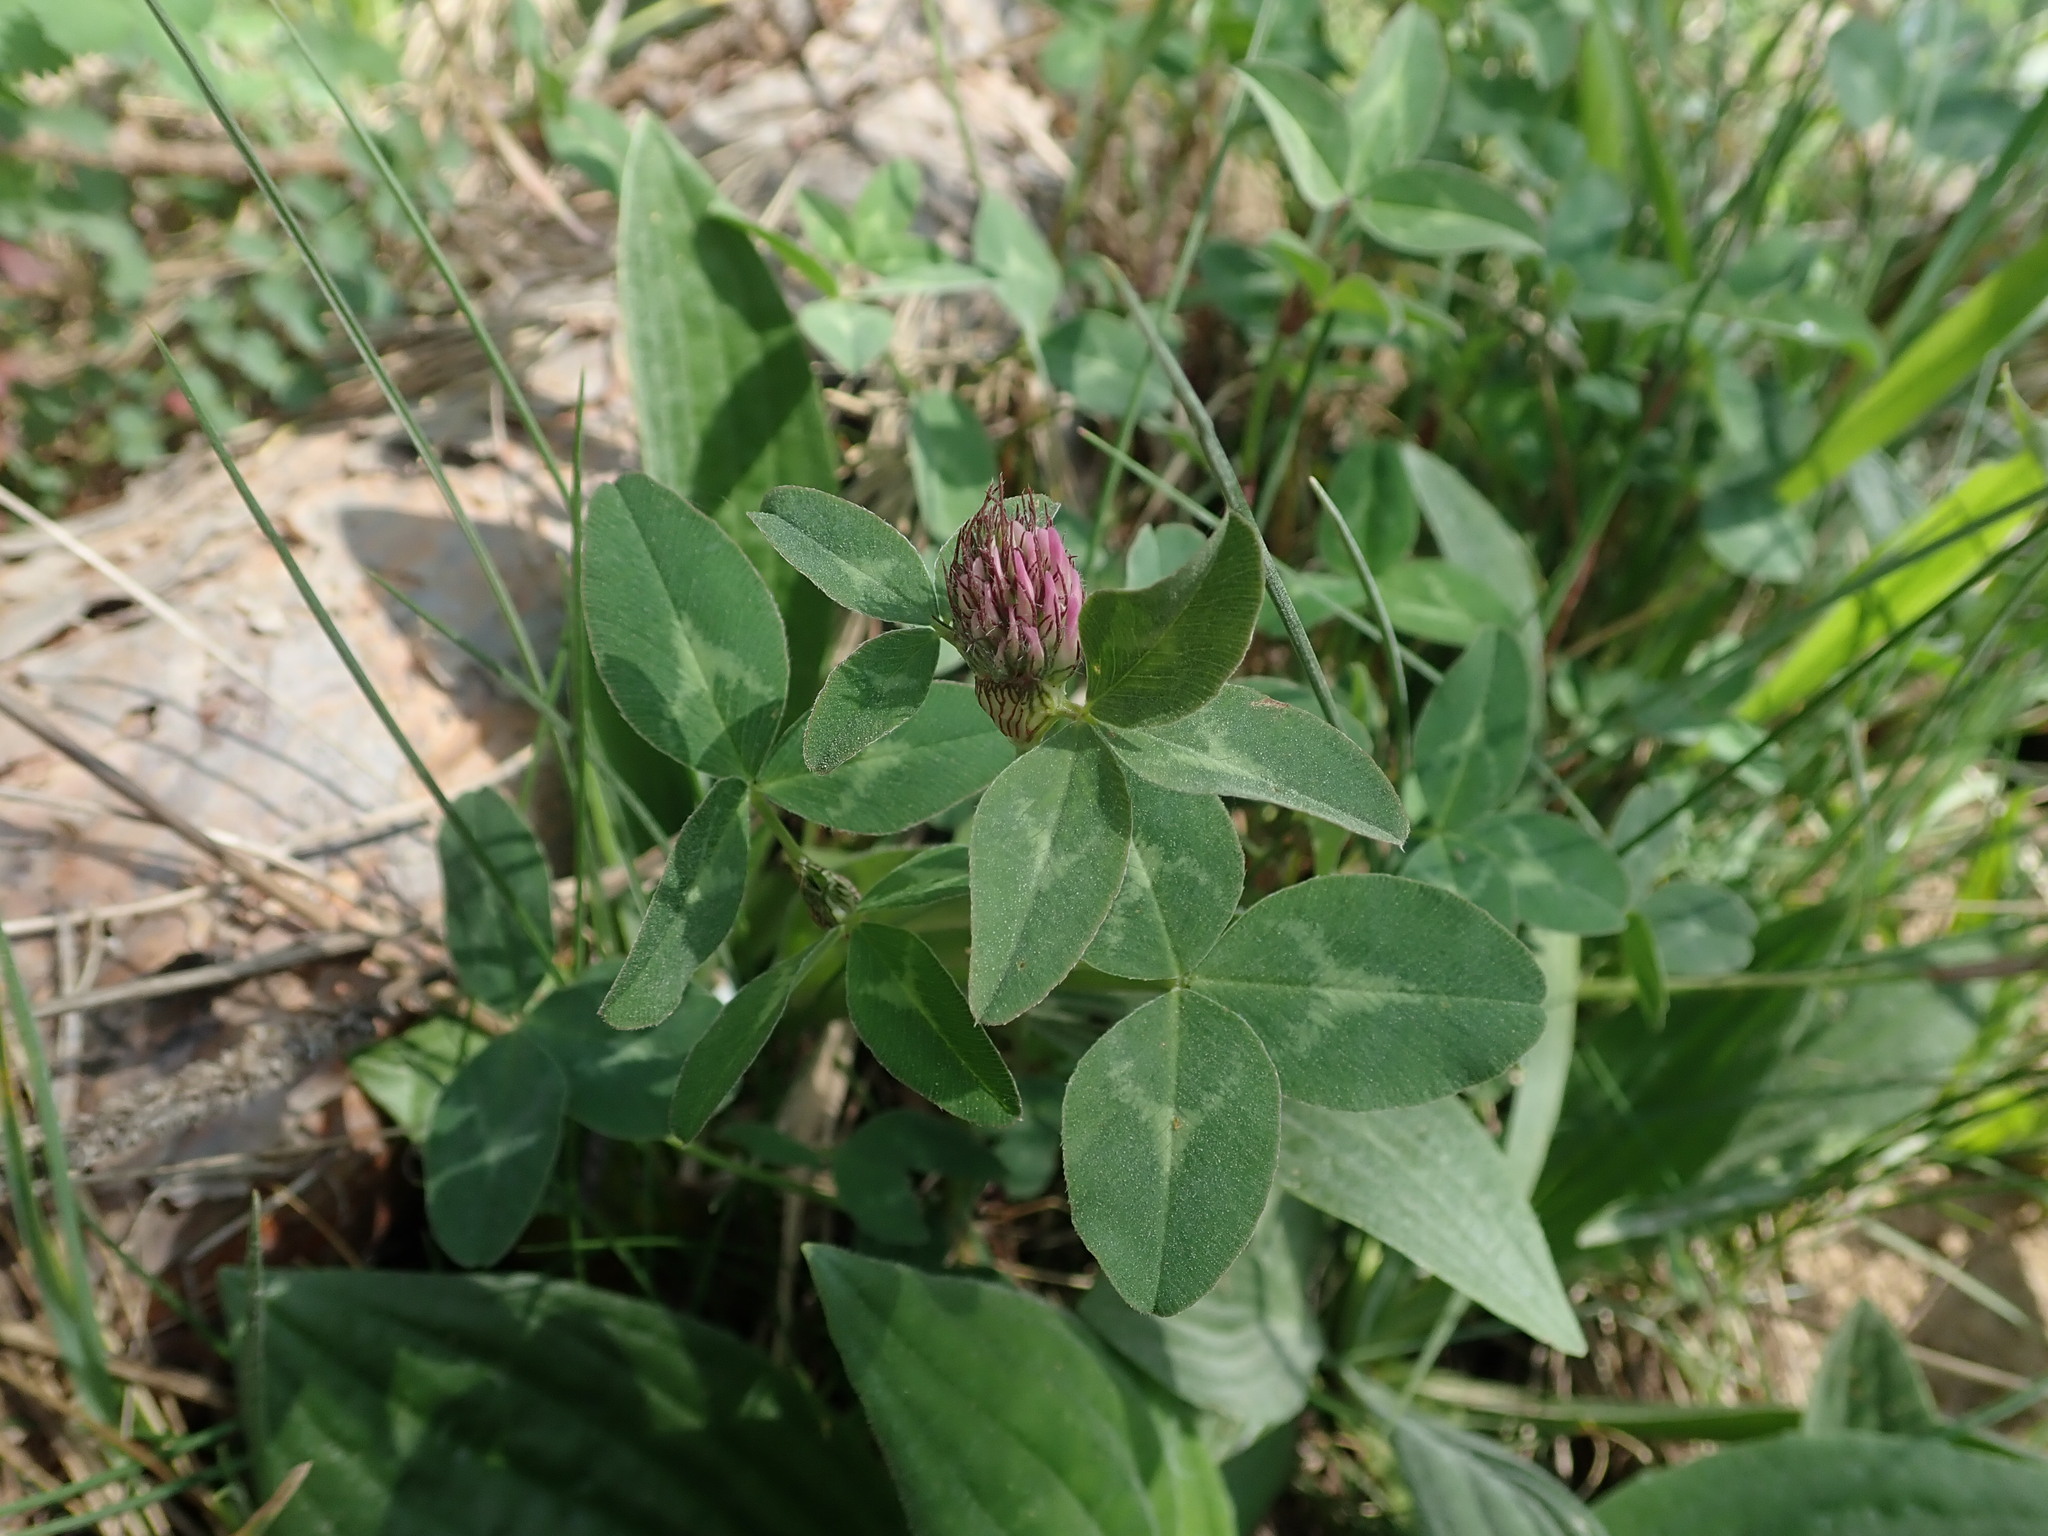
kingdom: Plantae
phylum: Tracheophyta
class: Magnoliopsida
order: Fabales
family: Fabaceae
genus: Trifolium
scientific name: Trifolium pratense
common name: Red clover
